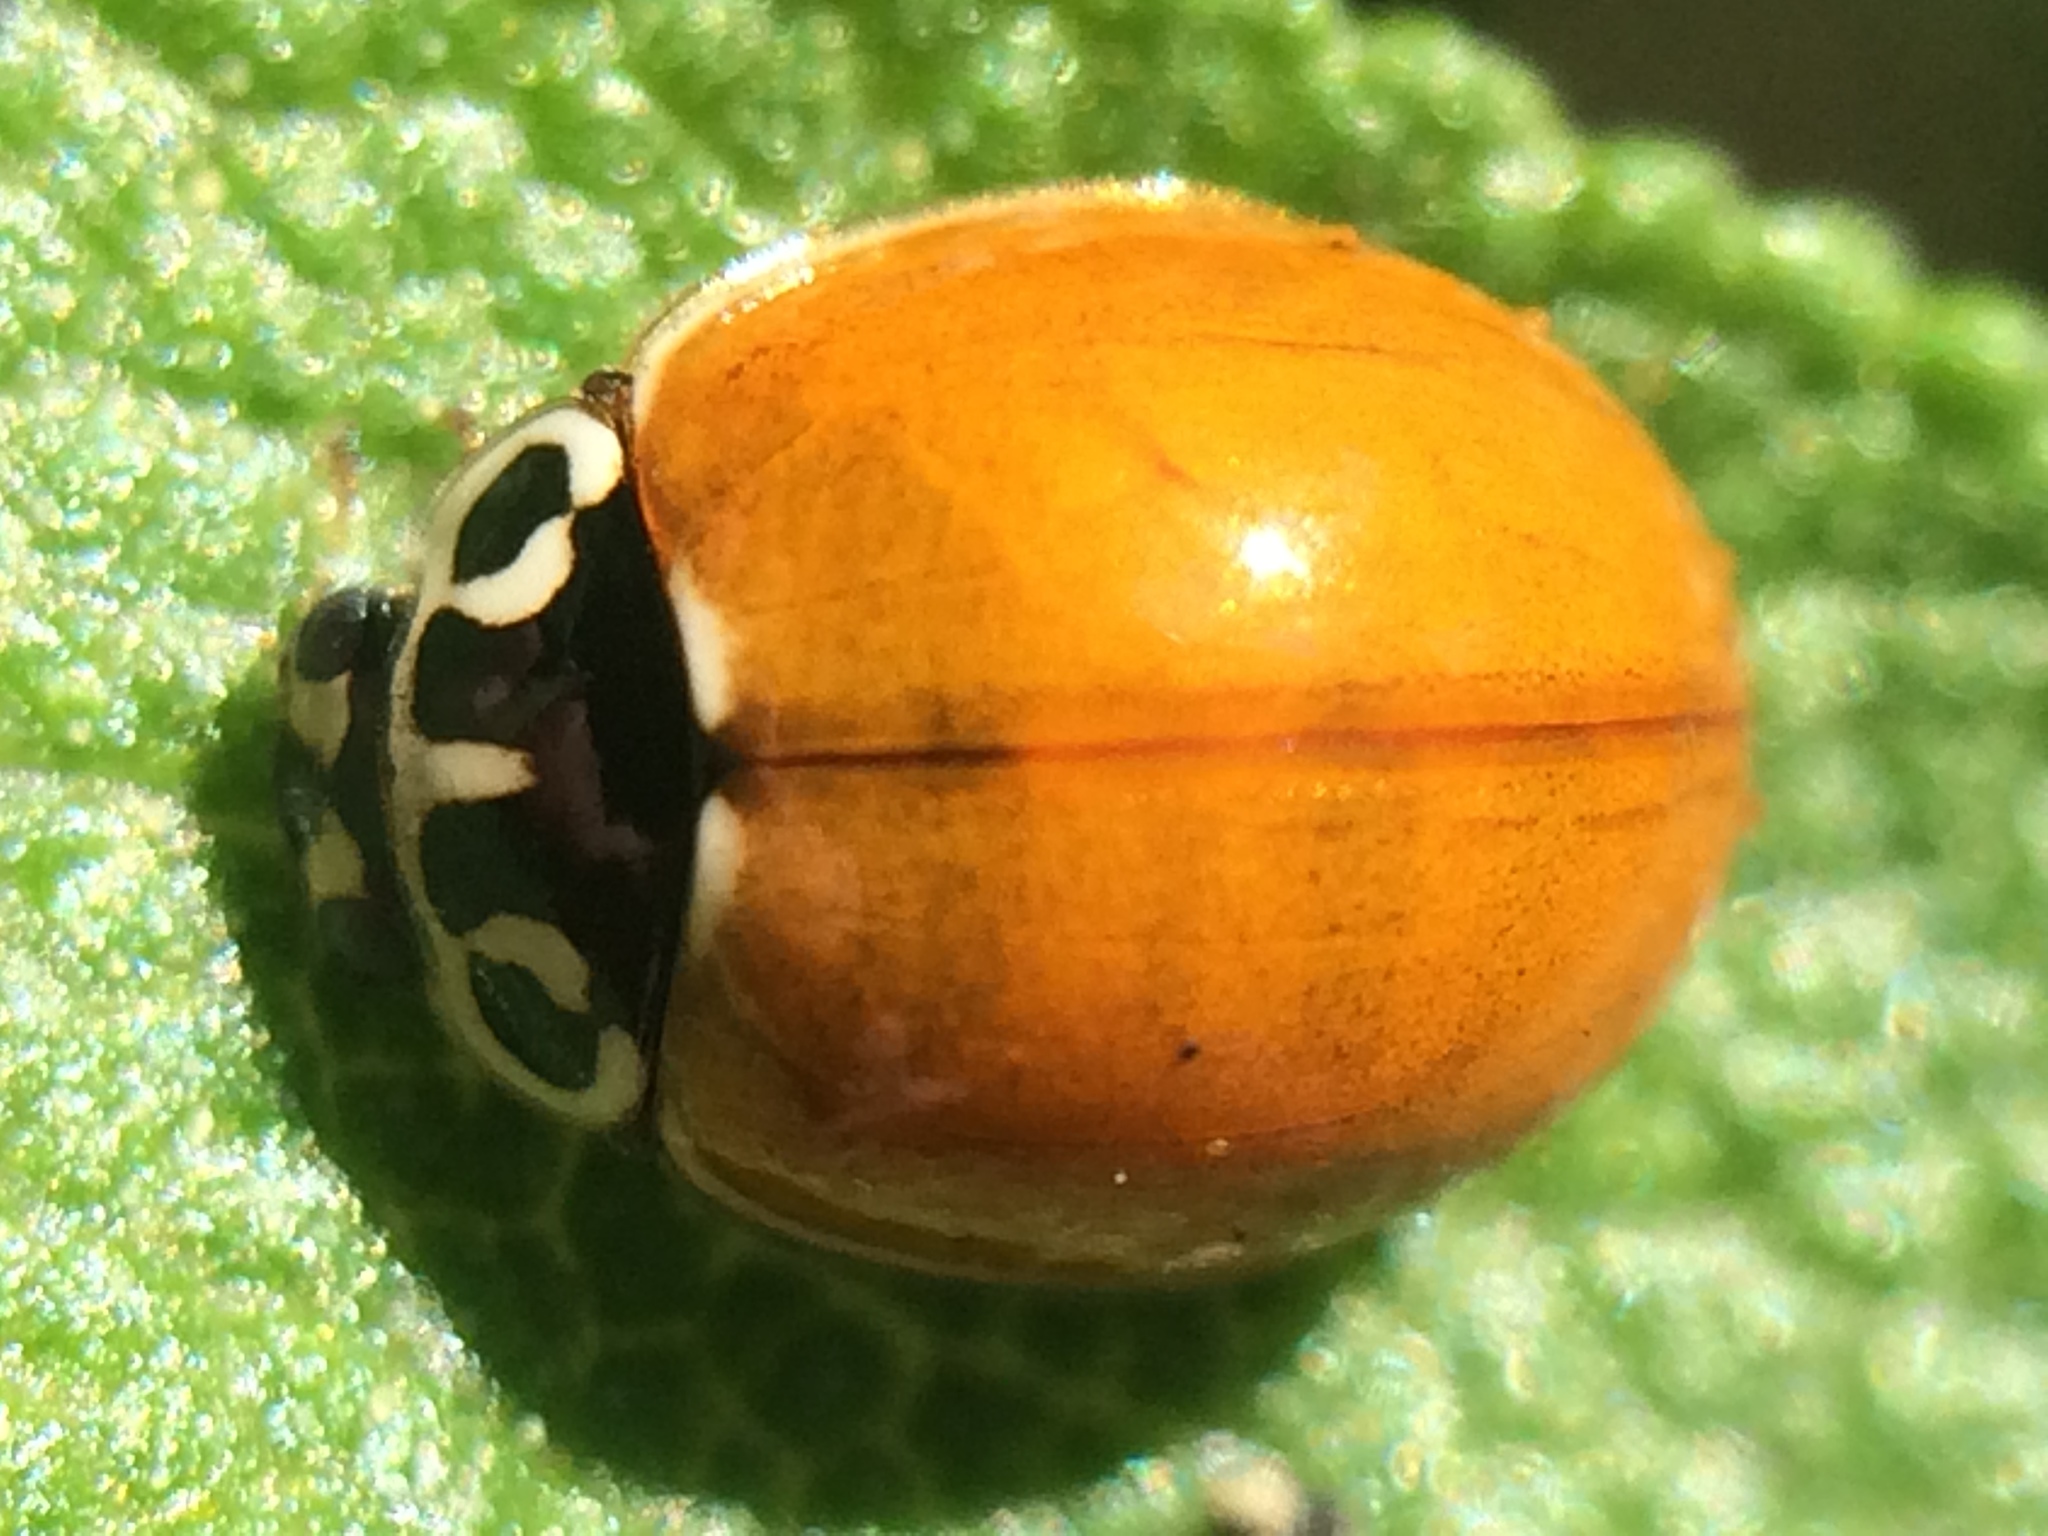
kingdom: Animalia
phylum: Arthropoda
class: Insecta
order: Coleoptera
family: Coccinellidae
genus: Cycloneda
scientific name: Cycloneda polita
